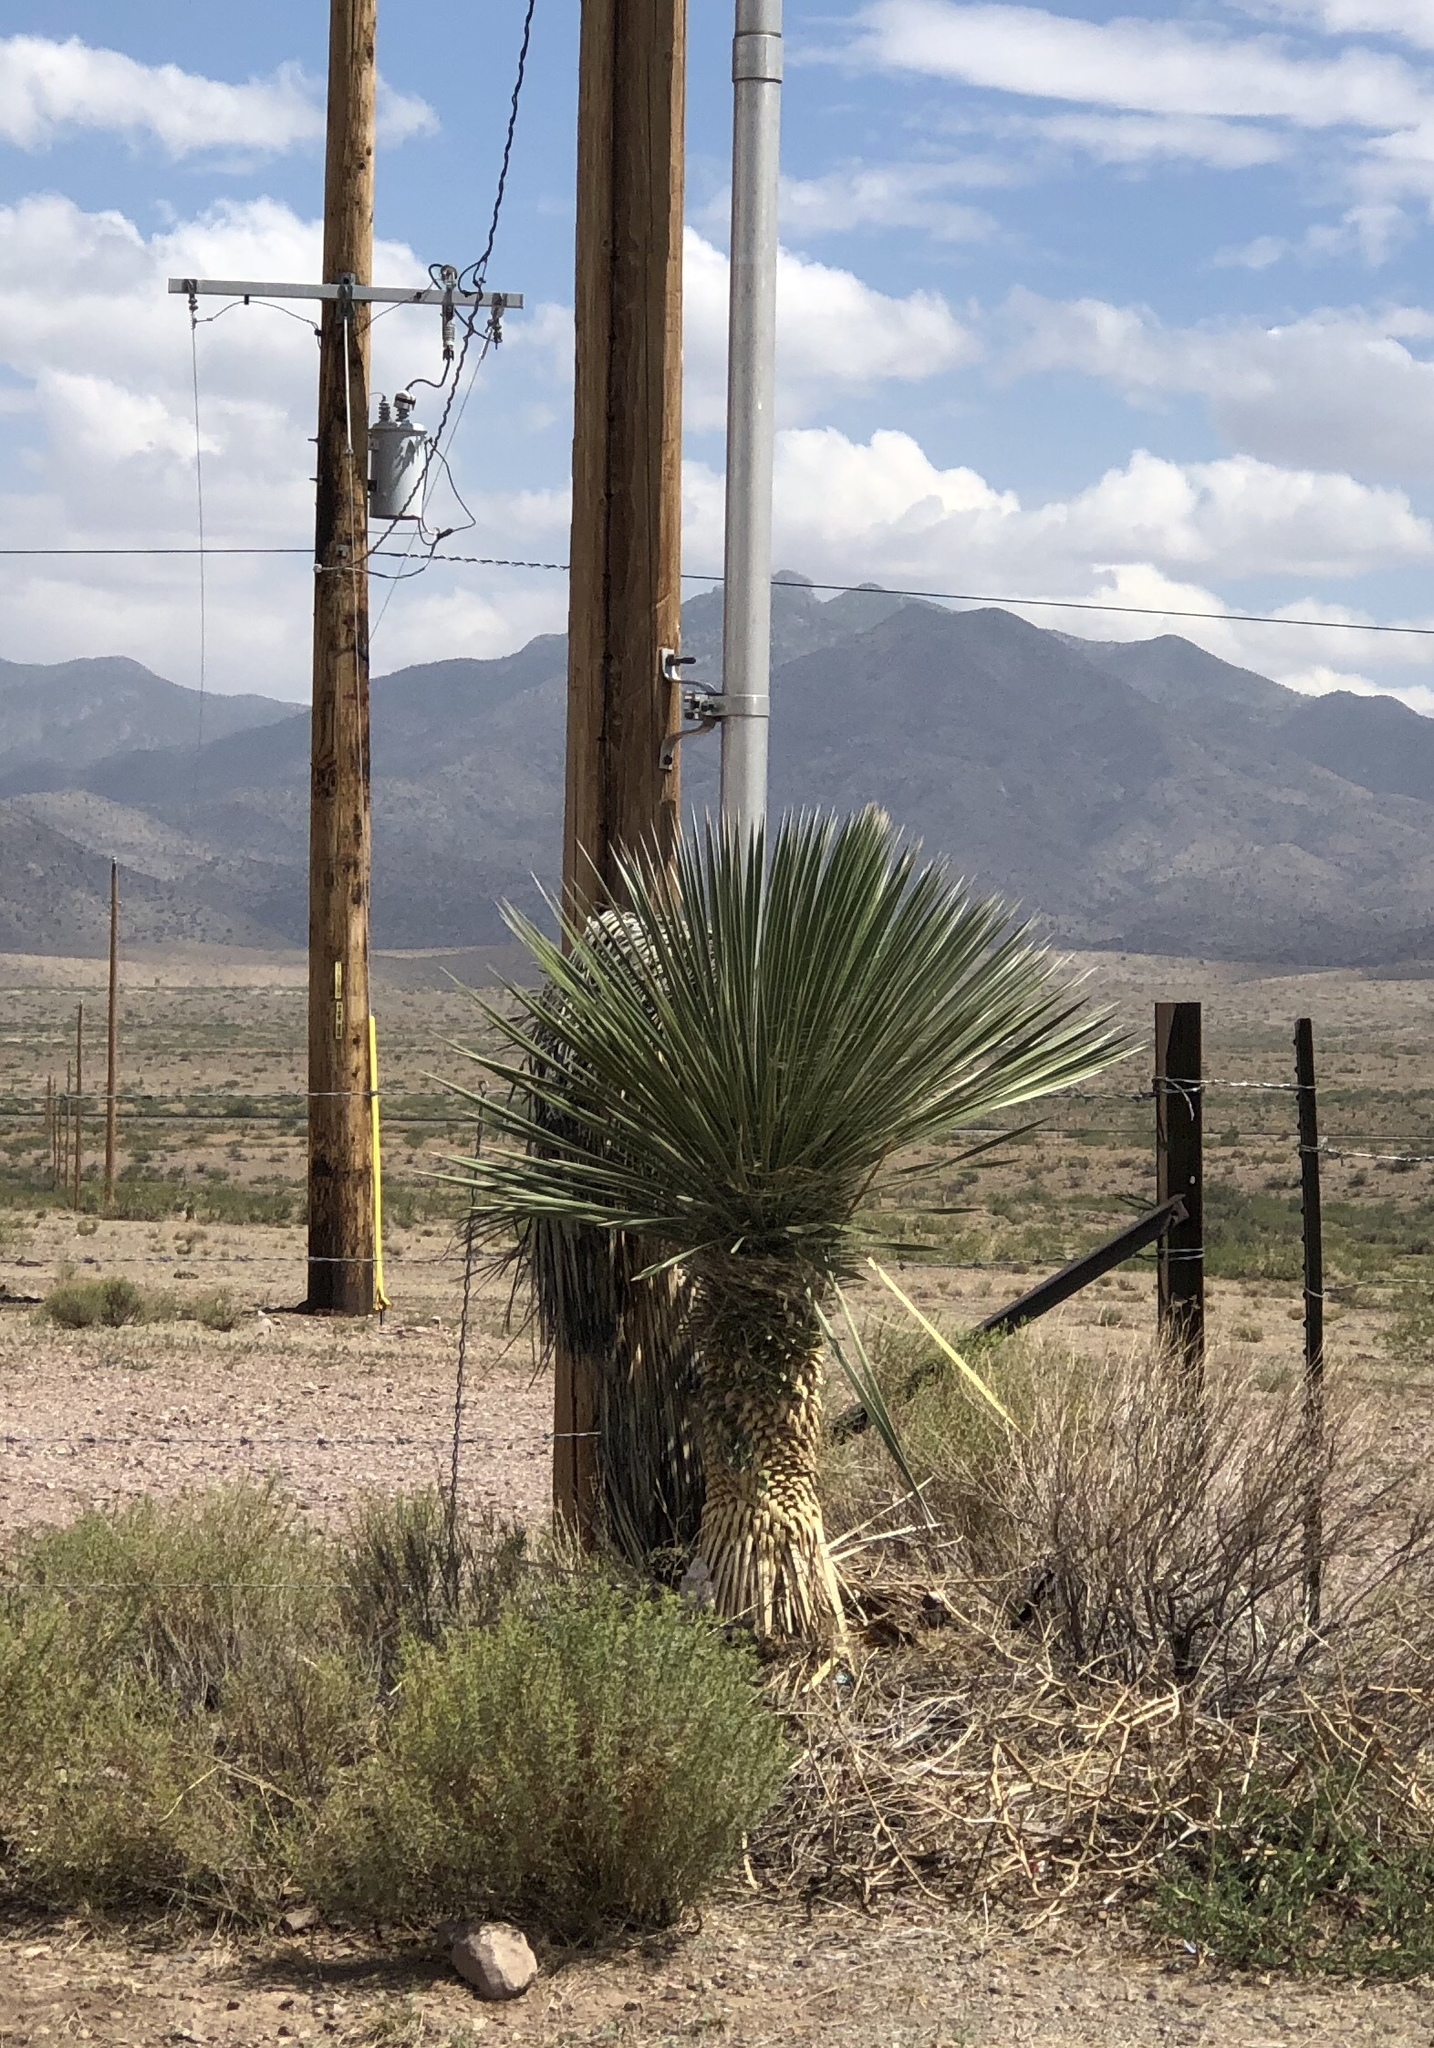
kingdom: Plantae
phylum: Tracheophyta
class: Liliopsida
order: Asparagales
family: Asparagaceae
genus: Yucca
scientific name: Yucca elata
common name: Palmella
